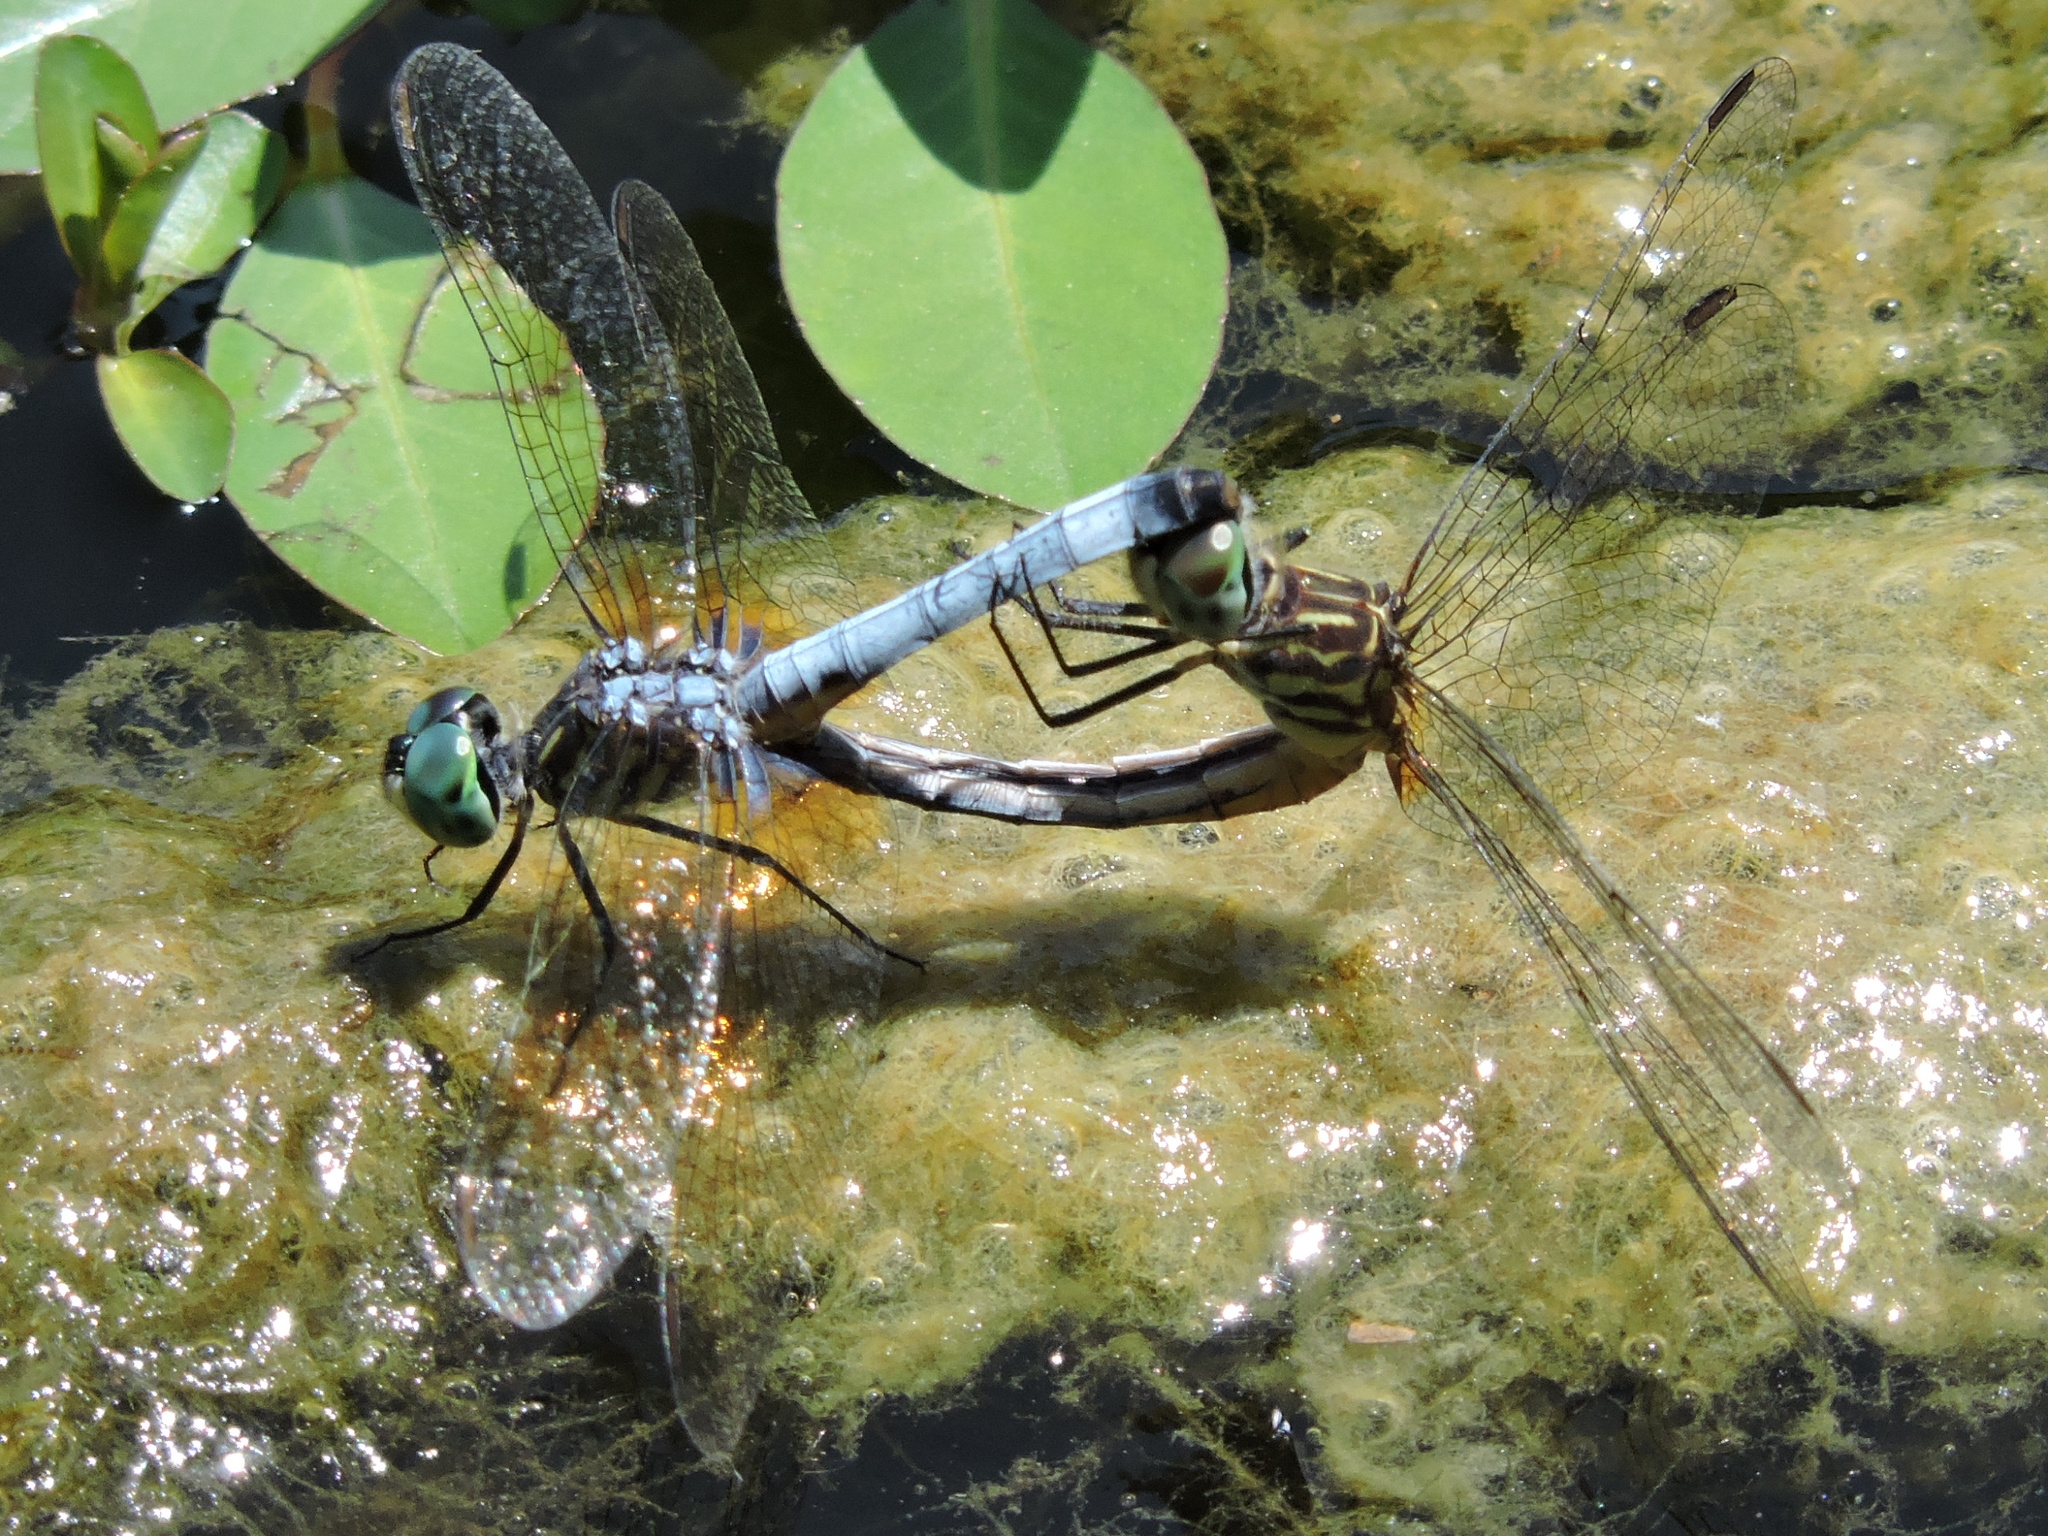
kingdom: Animalia
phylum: Arthropoda
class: Insecta
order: Odonata
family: Libellulidae
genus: Pachydiplax
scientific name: Pachydiplax longipennis
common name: Blue dasher
